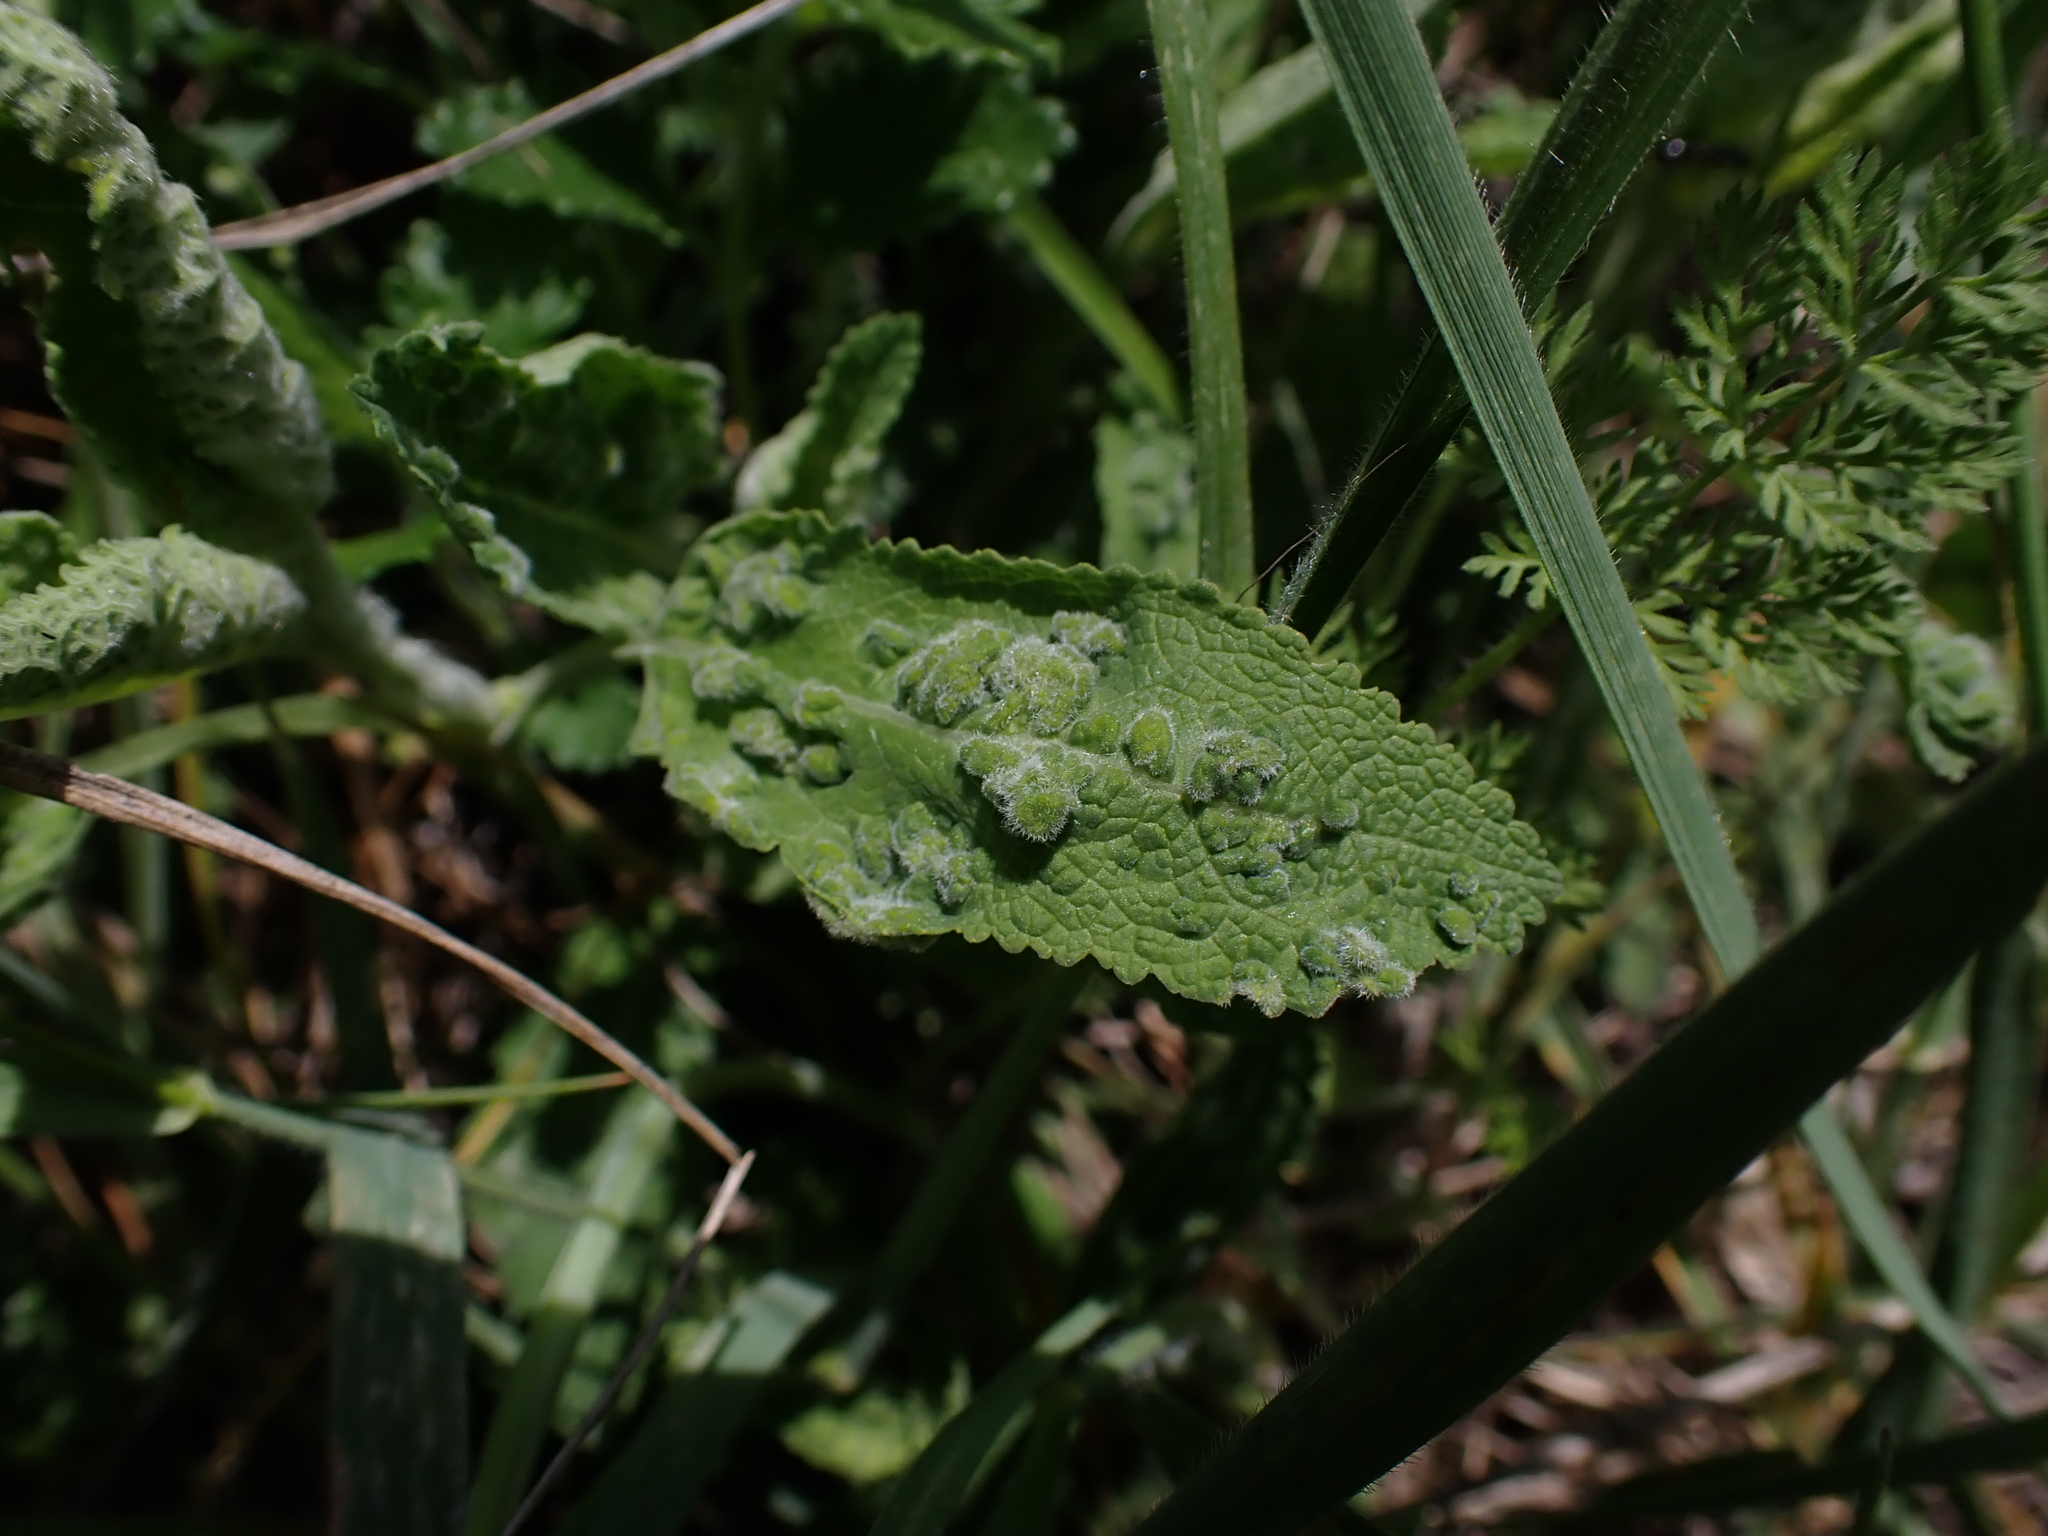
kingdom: Animalia
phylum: Arthropoda
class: Arachnida
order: Trombidiformes
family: Eriophyidae
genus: Aceria
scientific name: Aceria salviae
